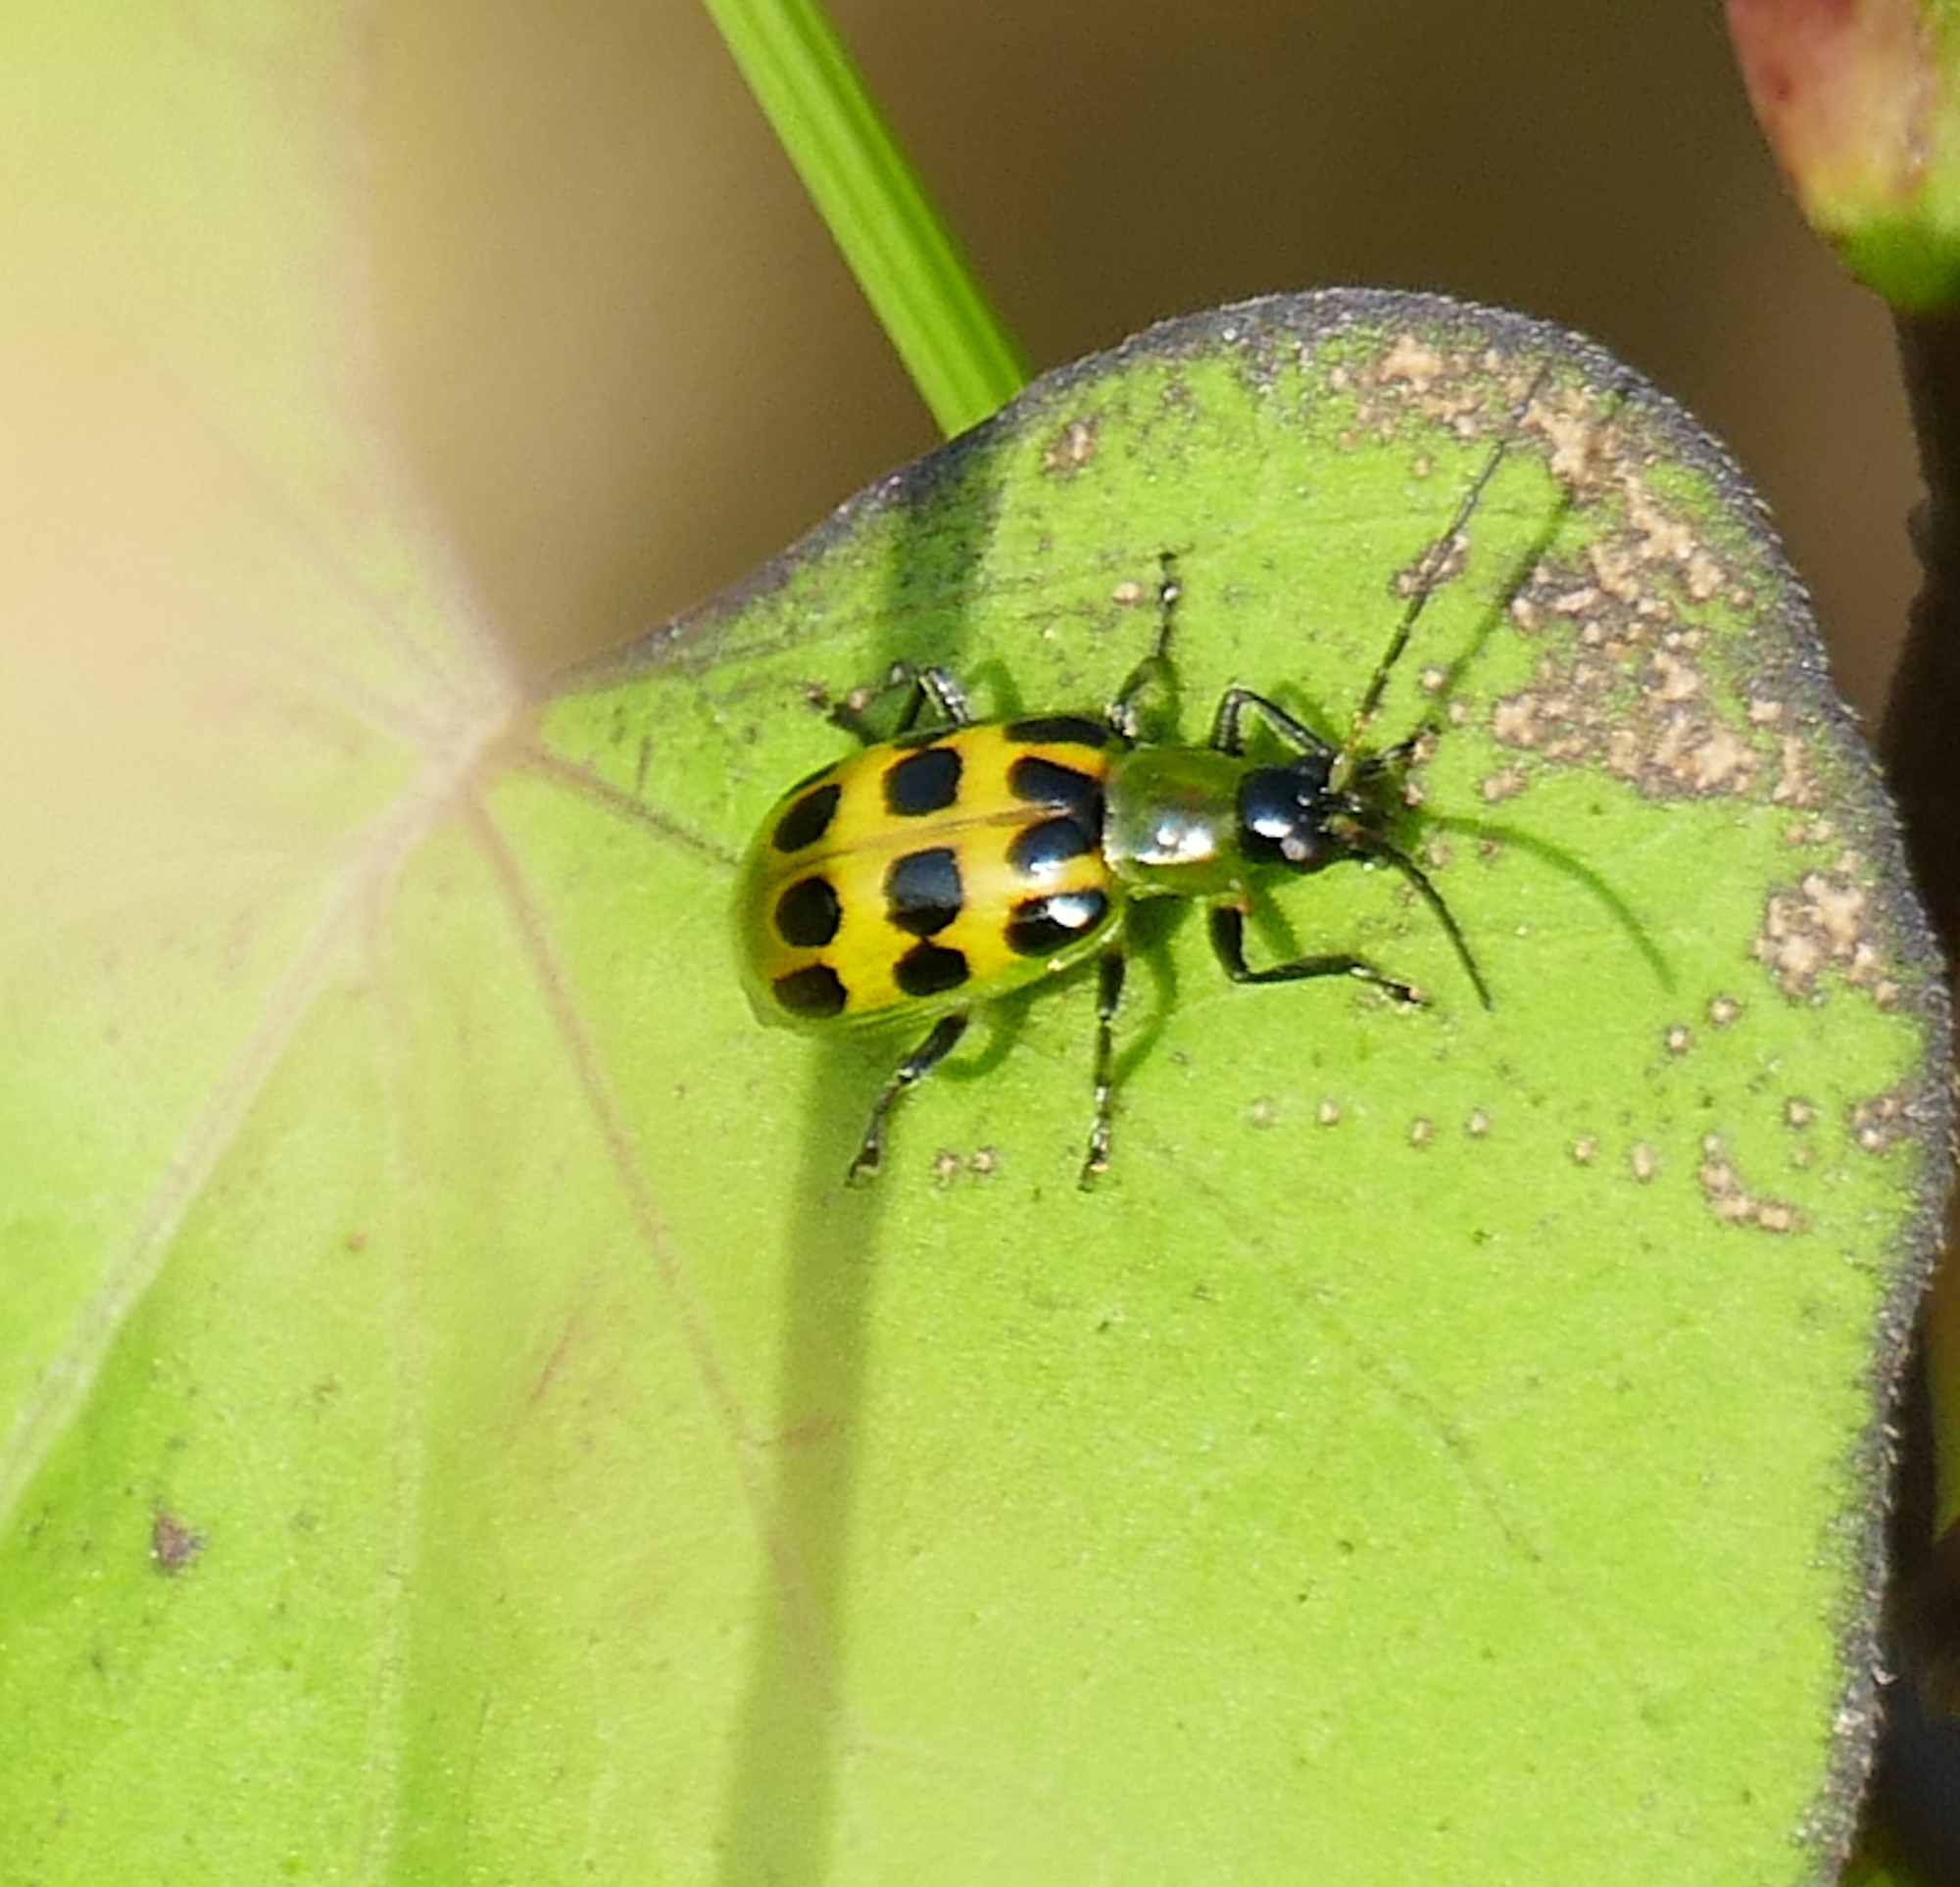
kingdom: Animalia
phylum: Arthropoda
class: Insecta
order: Coleoptera
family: Chrysomelidae
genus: Diabrotica
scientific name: Diabrotica undecimpunctata
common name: Spotted cucumber beetle
